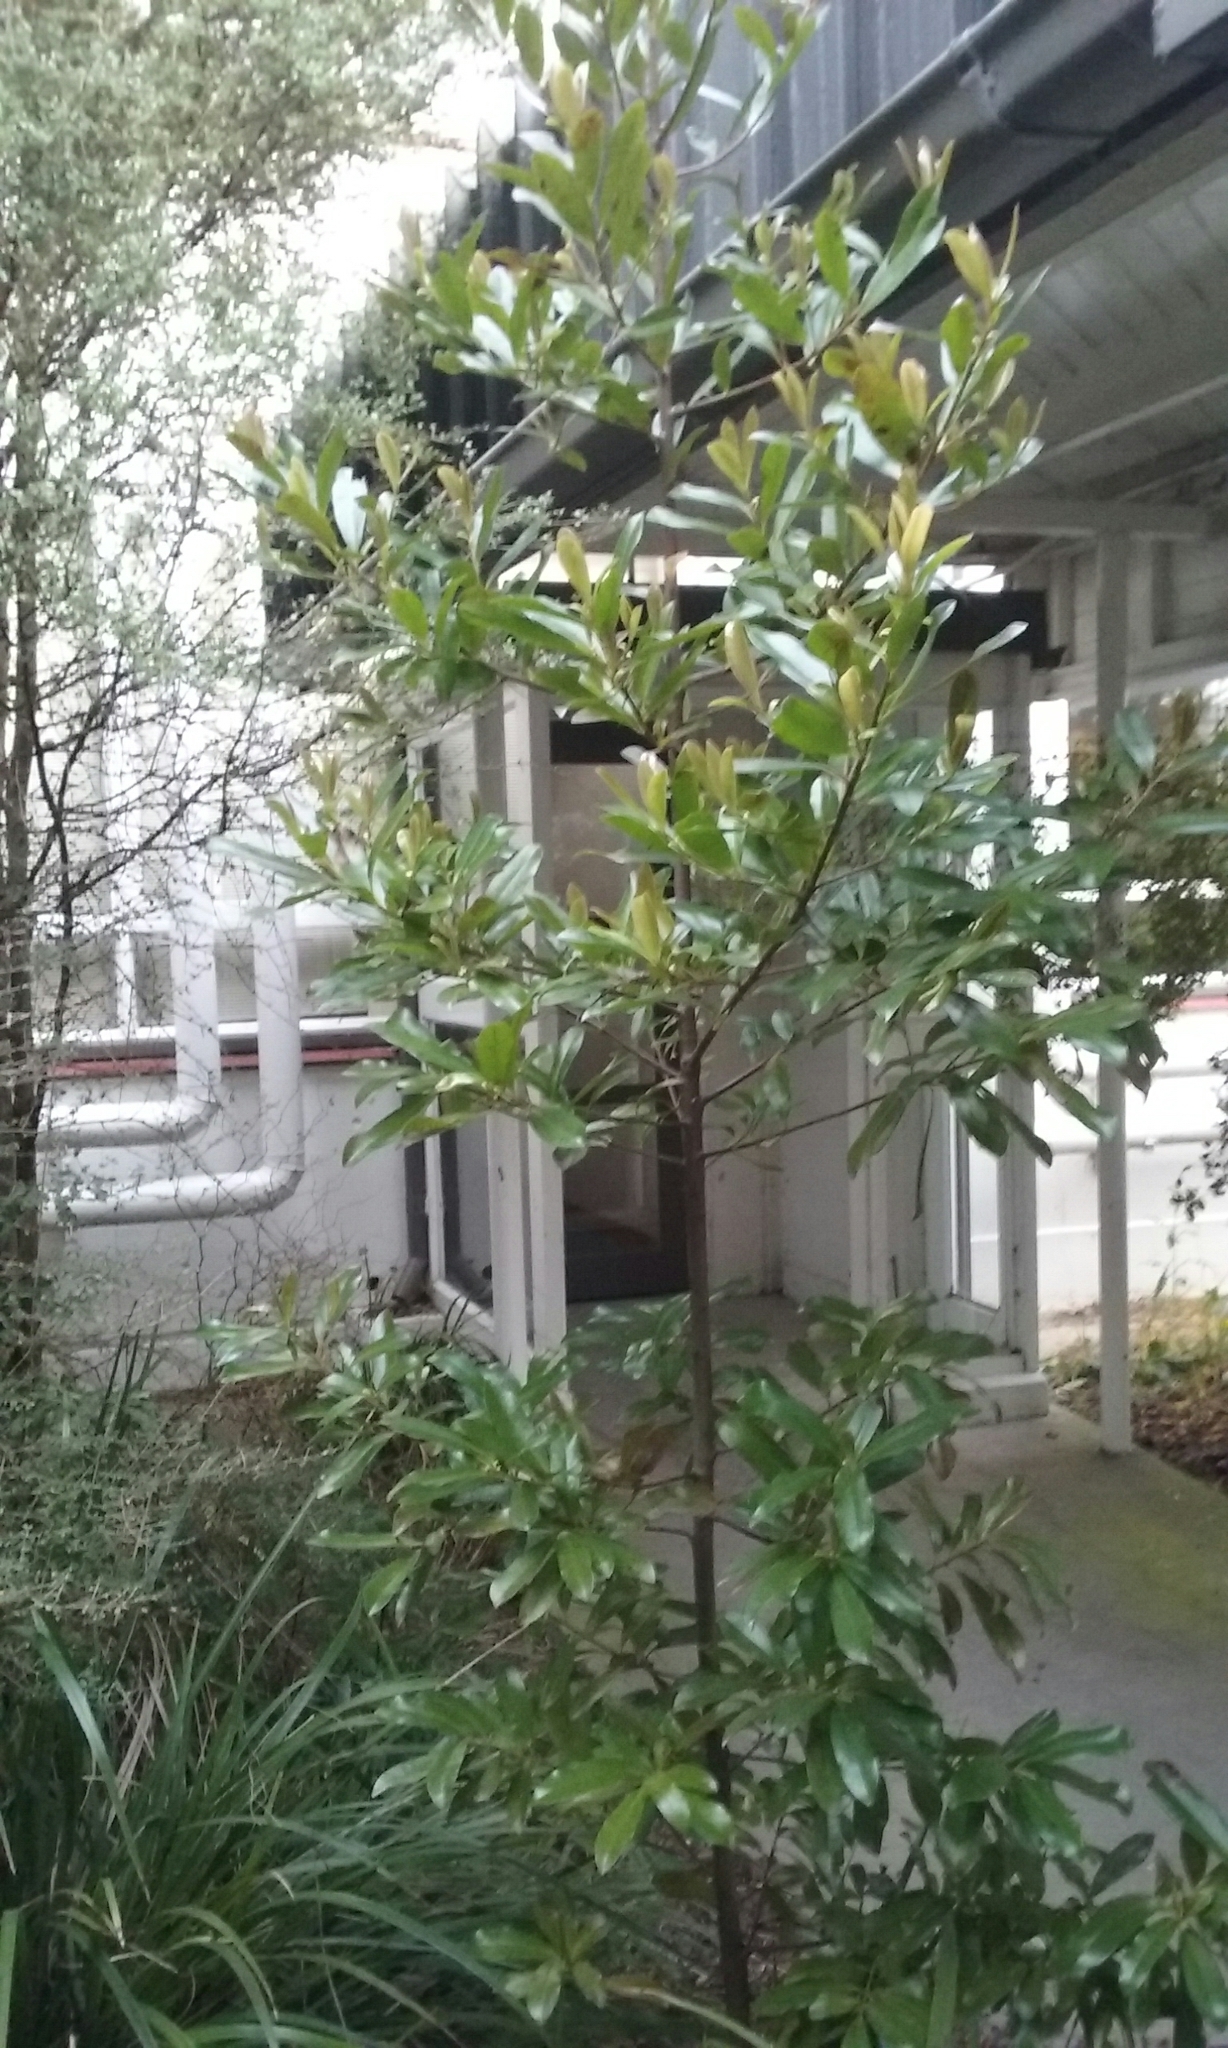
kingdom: Plantae
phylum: Tracheophyta
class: Magnoliopsida
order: Ericales
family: Primulaceae
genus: Myrsine
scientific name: Myrsine salicina
